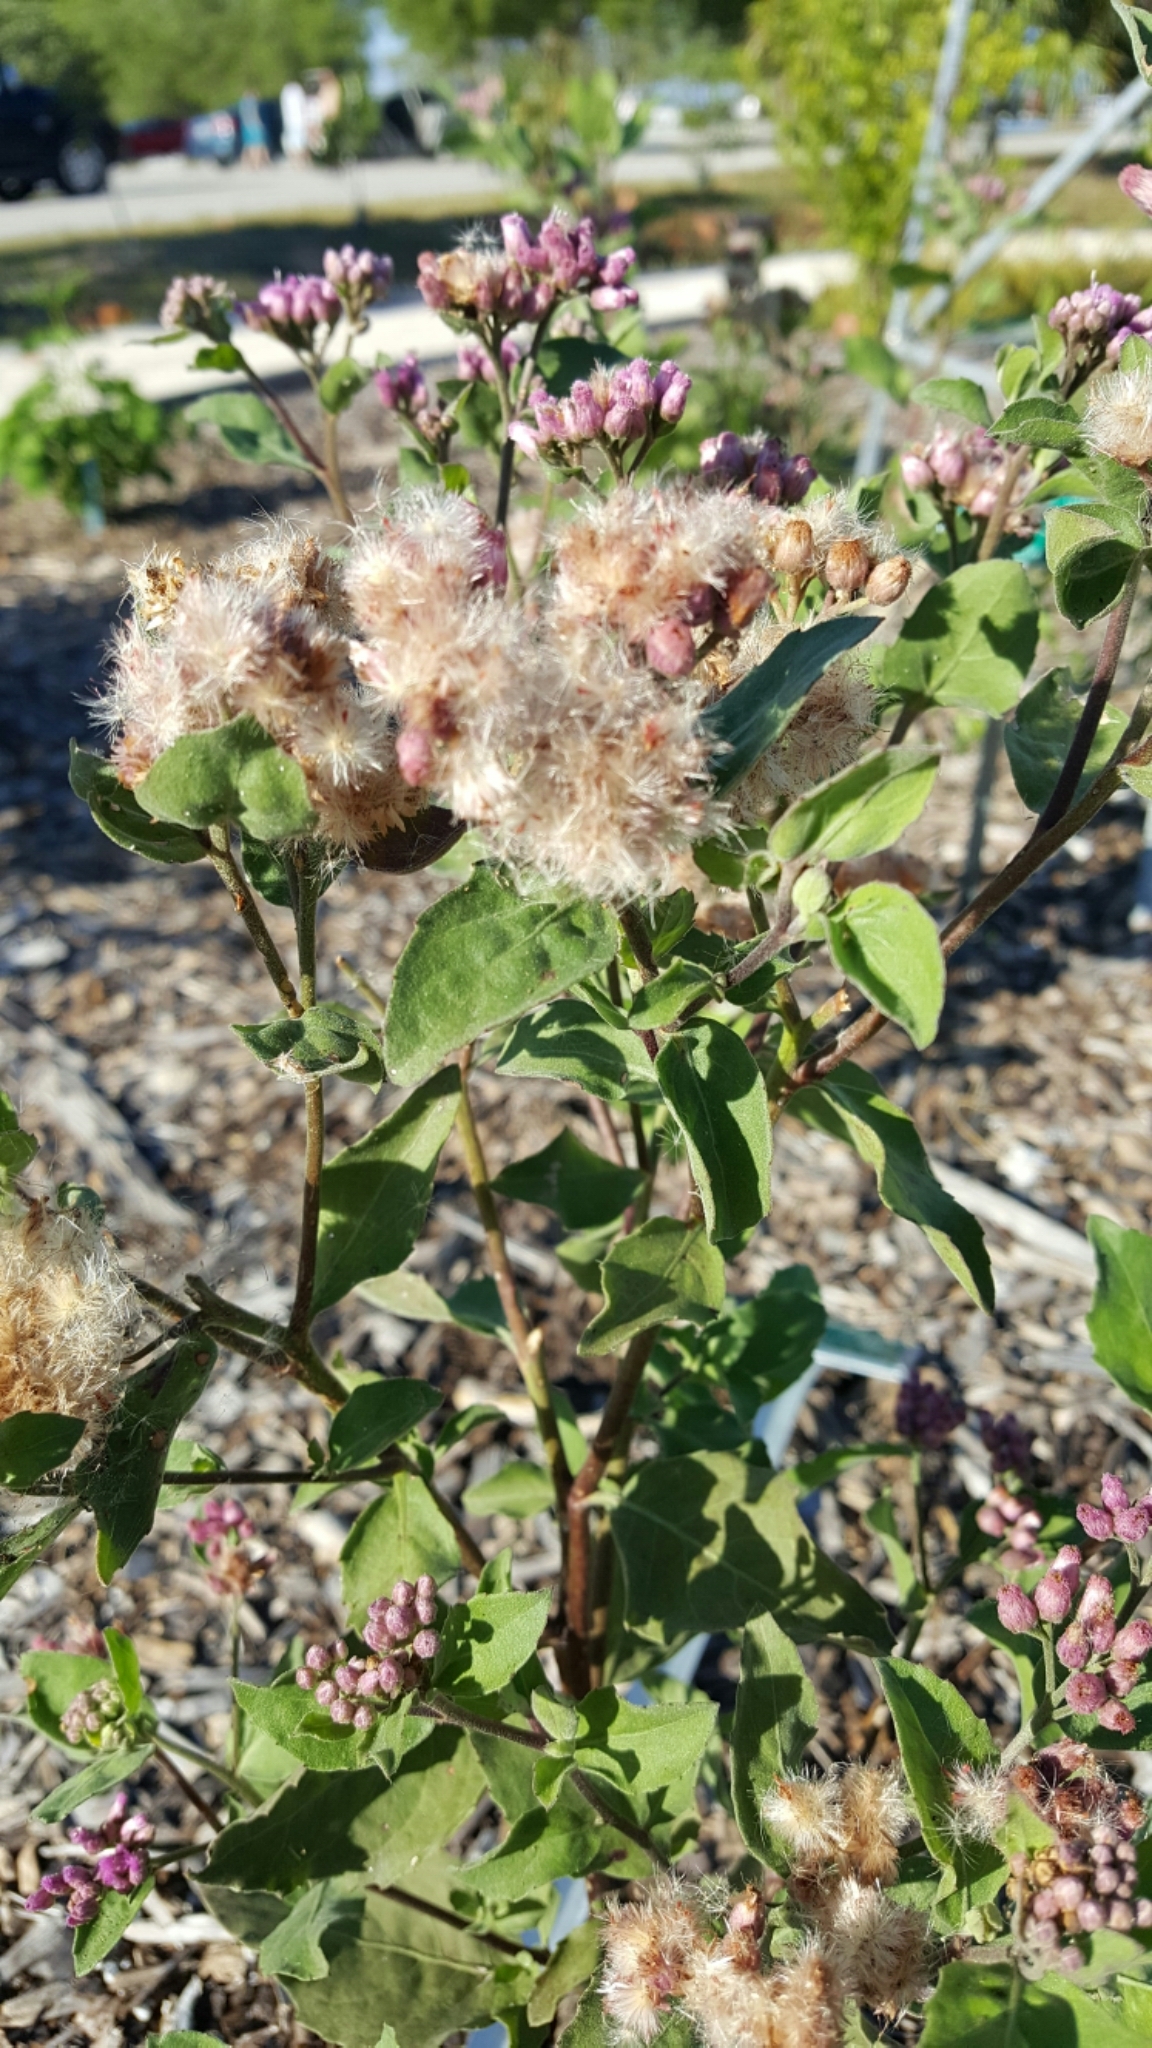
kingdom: Plantae
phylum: Tracheophyta
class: Magnoliopsida
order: Asterales
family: Asteraceae
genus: Pluchea
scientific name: Pluchea odorata
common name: Saltmarsh fleabane
